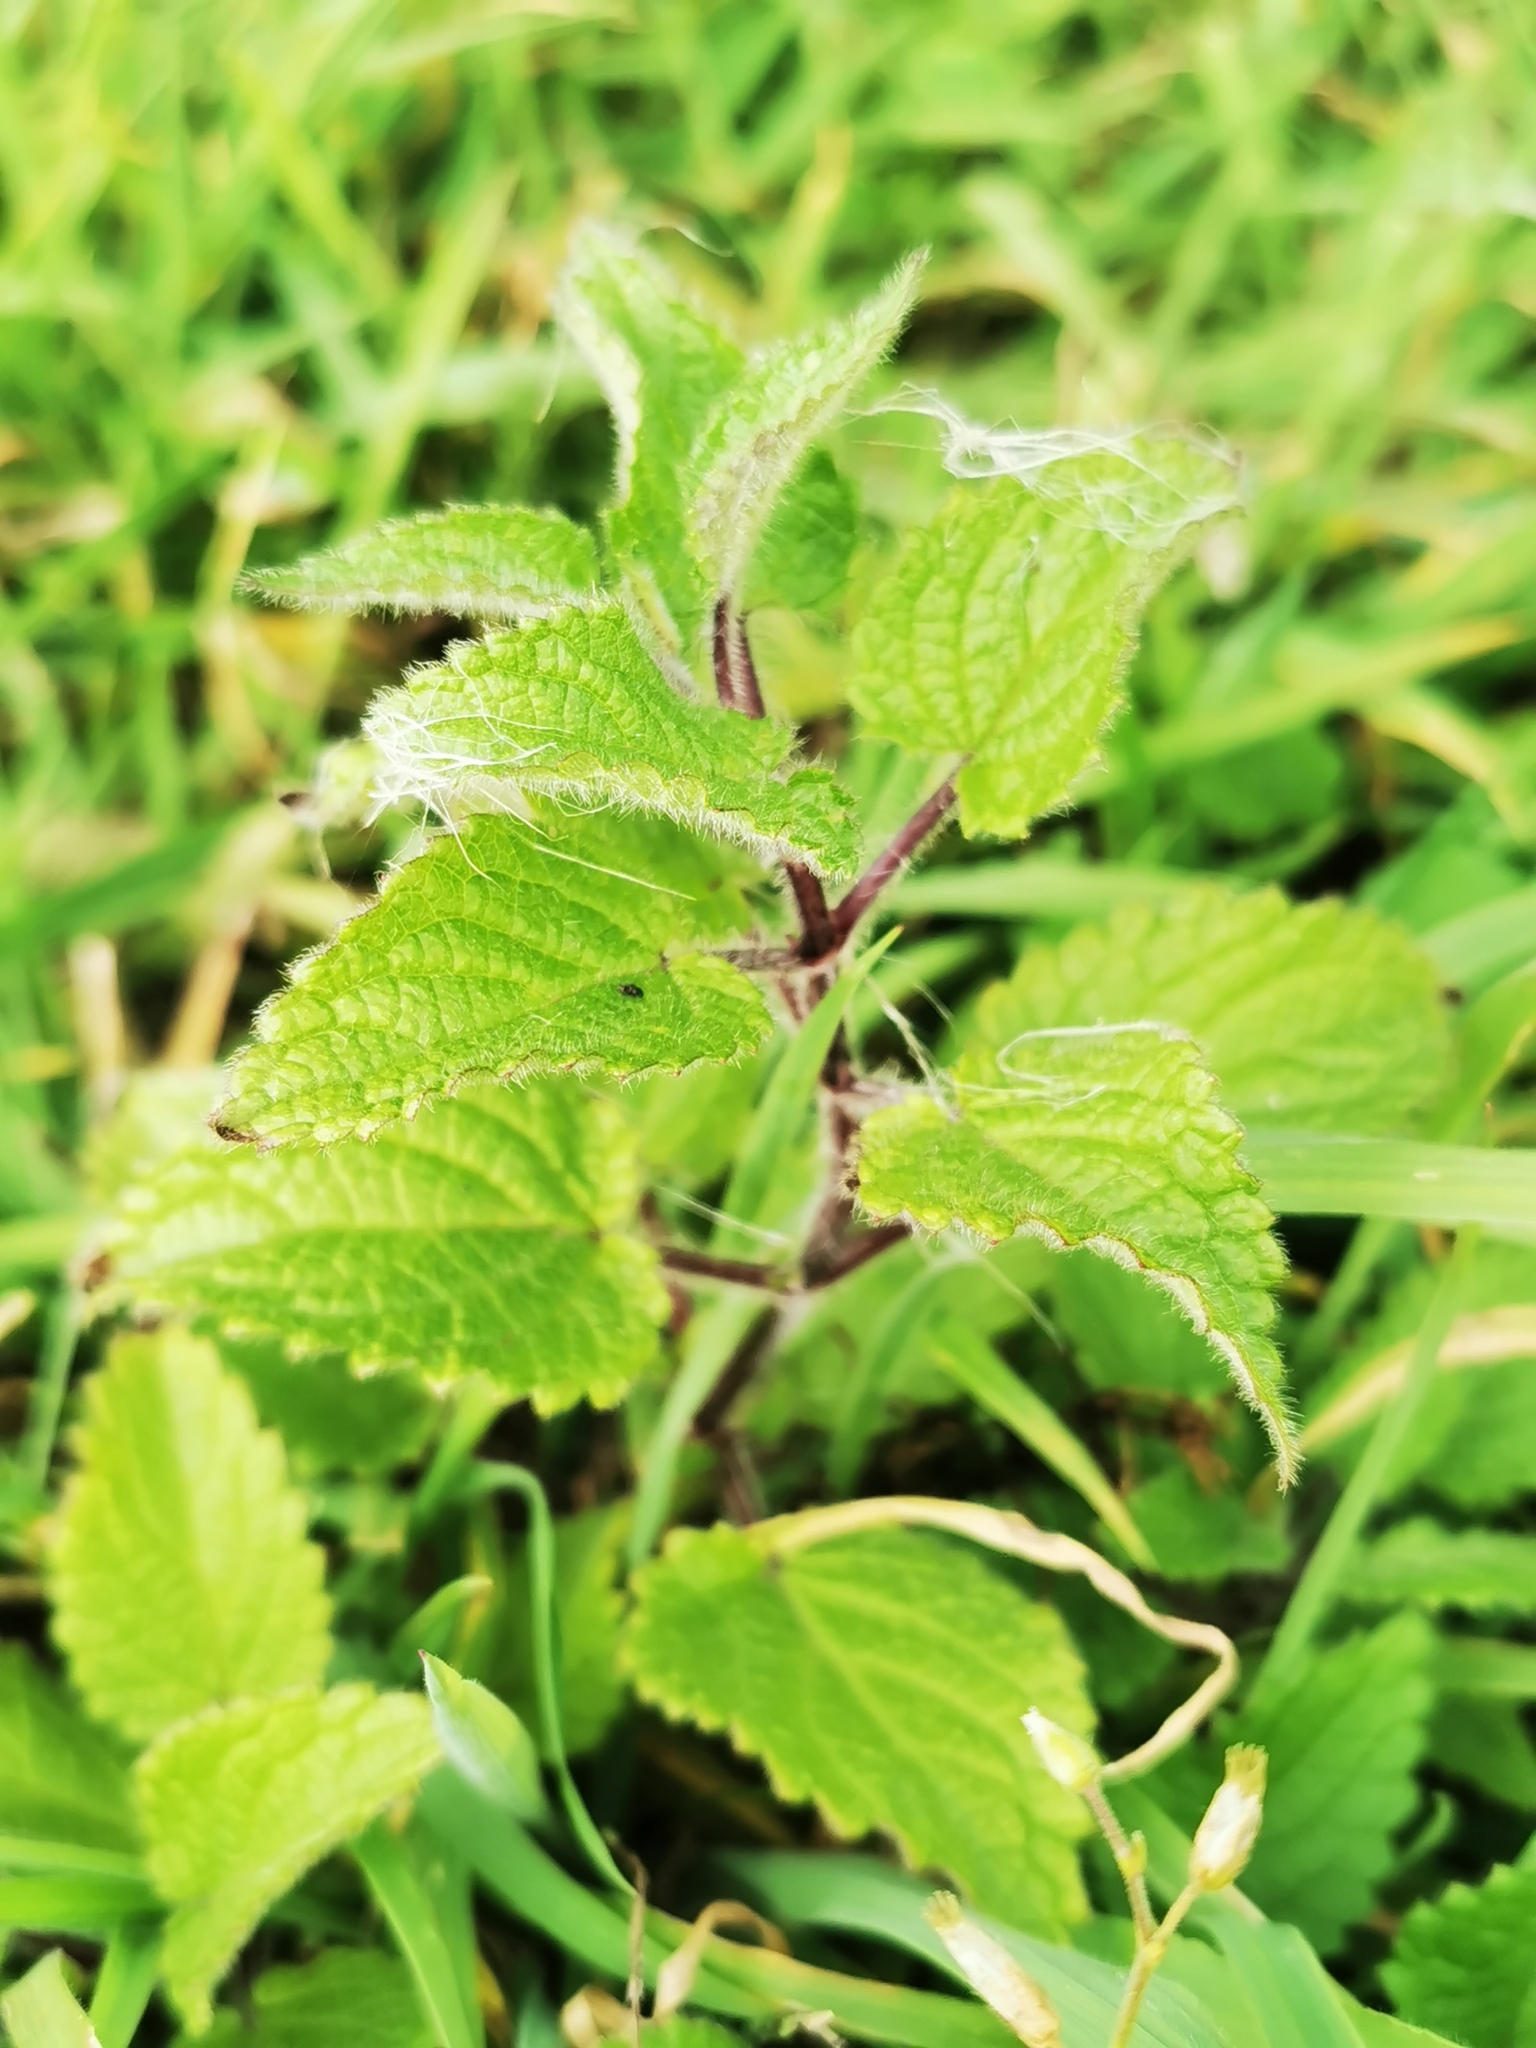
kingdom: Plantae
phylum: Tracheophyta
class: Magnoliopsida
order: Lamiales
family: Lamiaceae
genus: Stachys
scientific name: Stachys sylvatica
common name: Hedge woundwort
